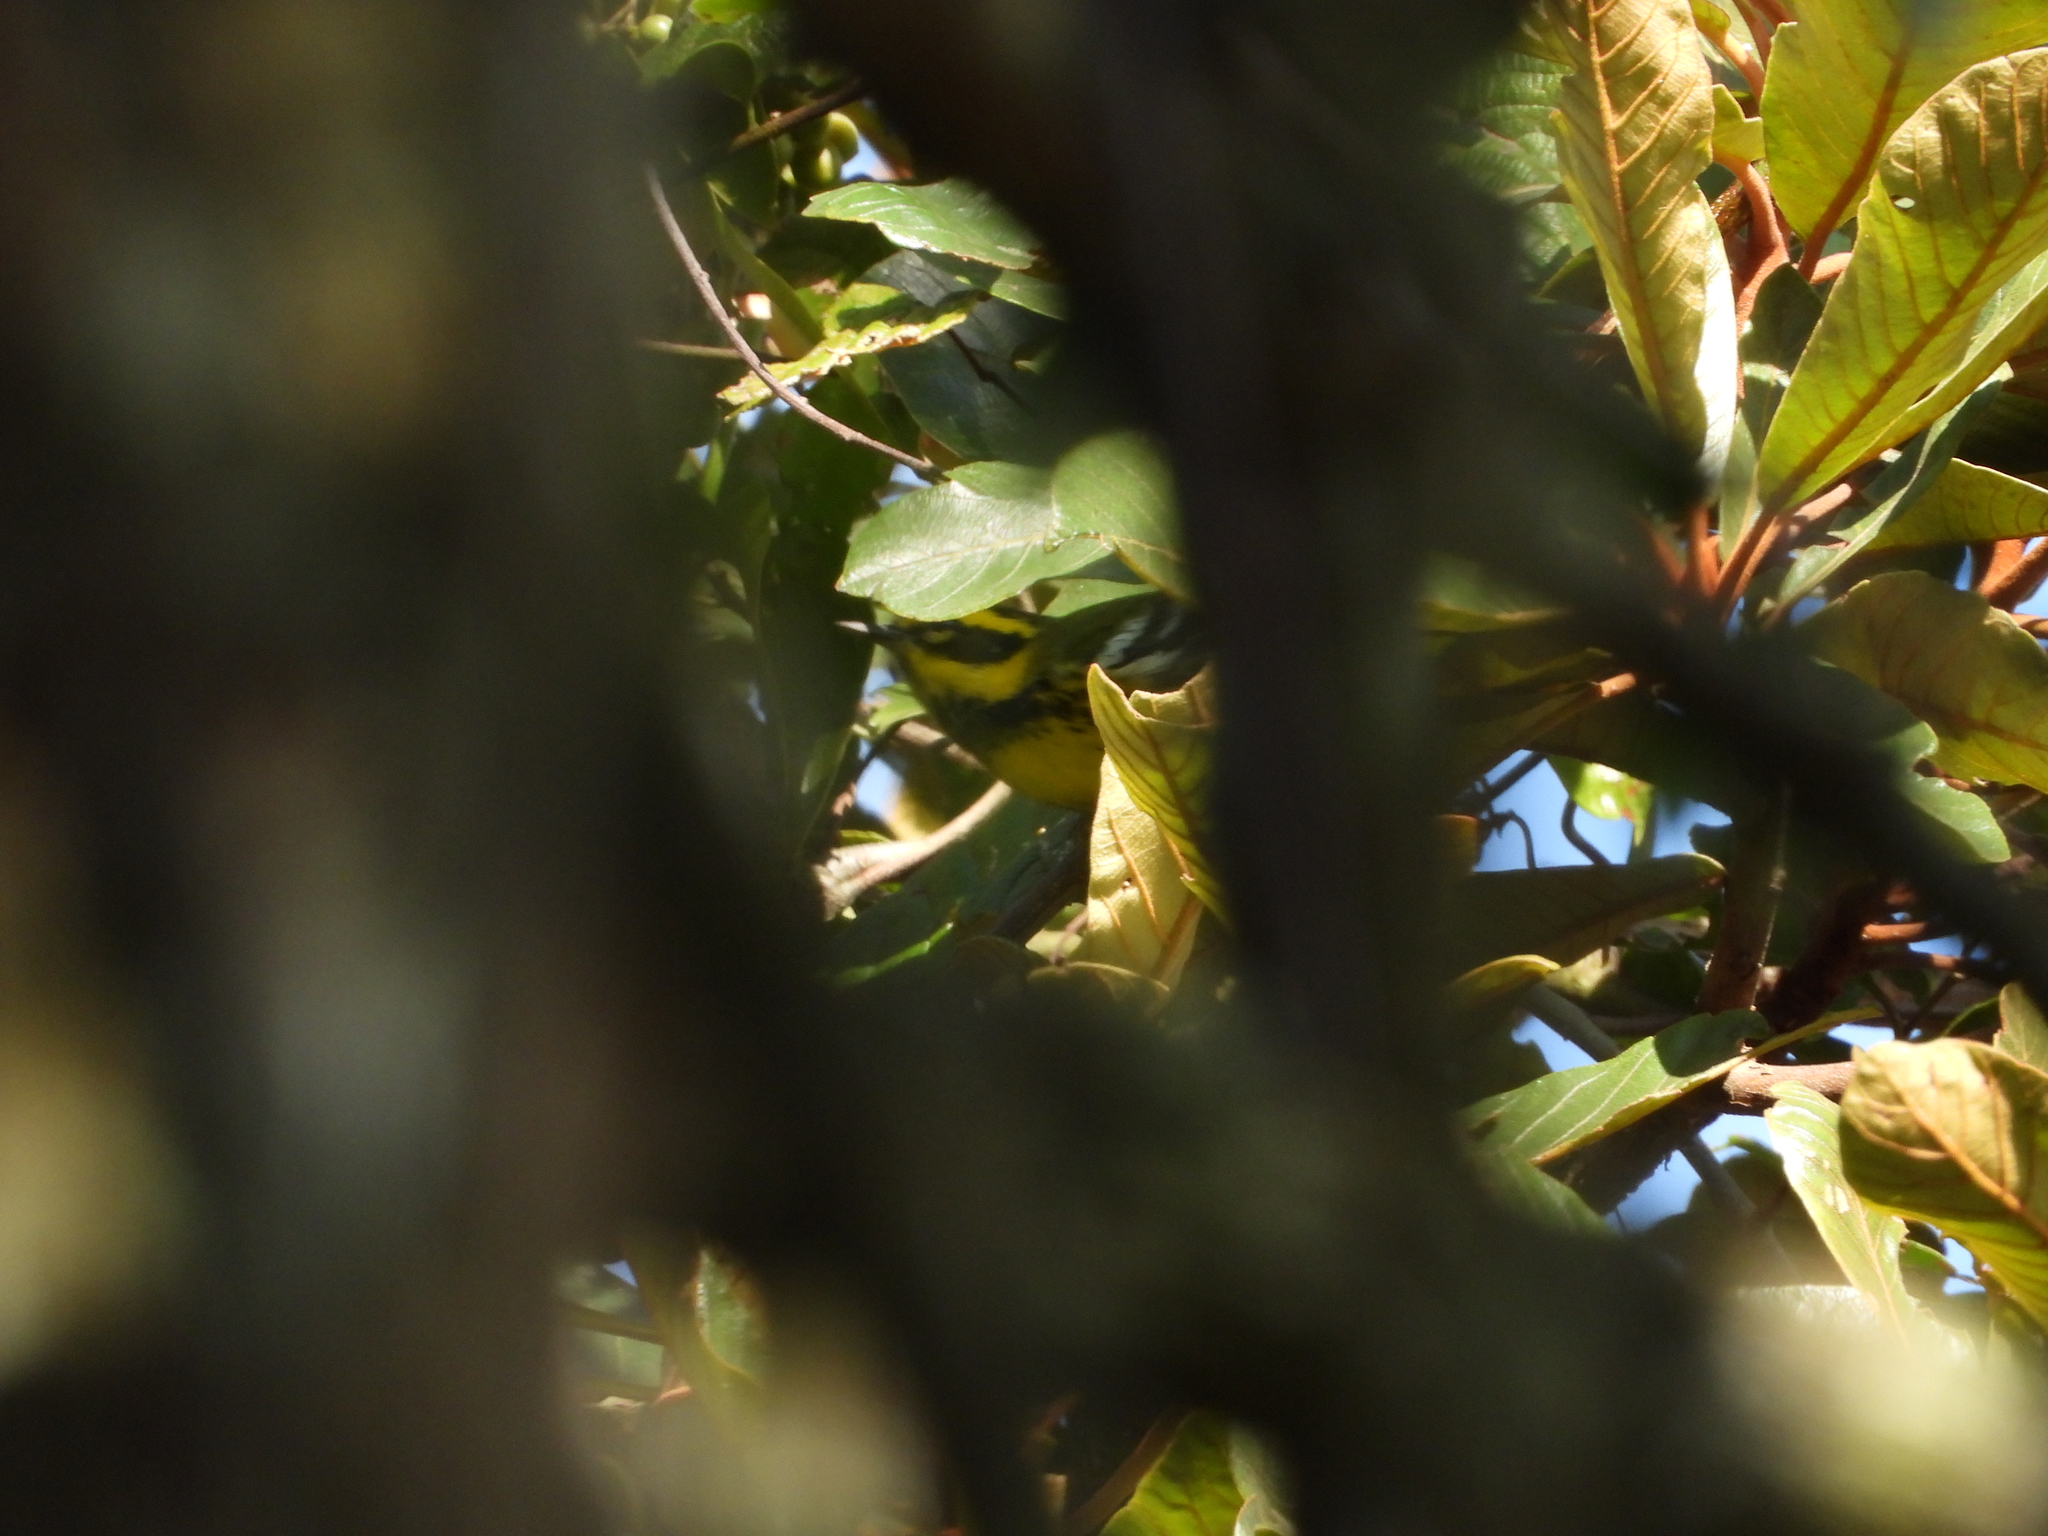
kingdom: Animalia
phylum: Chordata
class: Aves
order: Passeriformes
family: Parulidae
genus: Setophaga
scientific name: Setophaga townsendi
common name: Townsend's warbler
